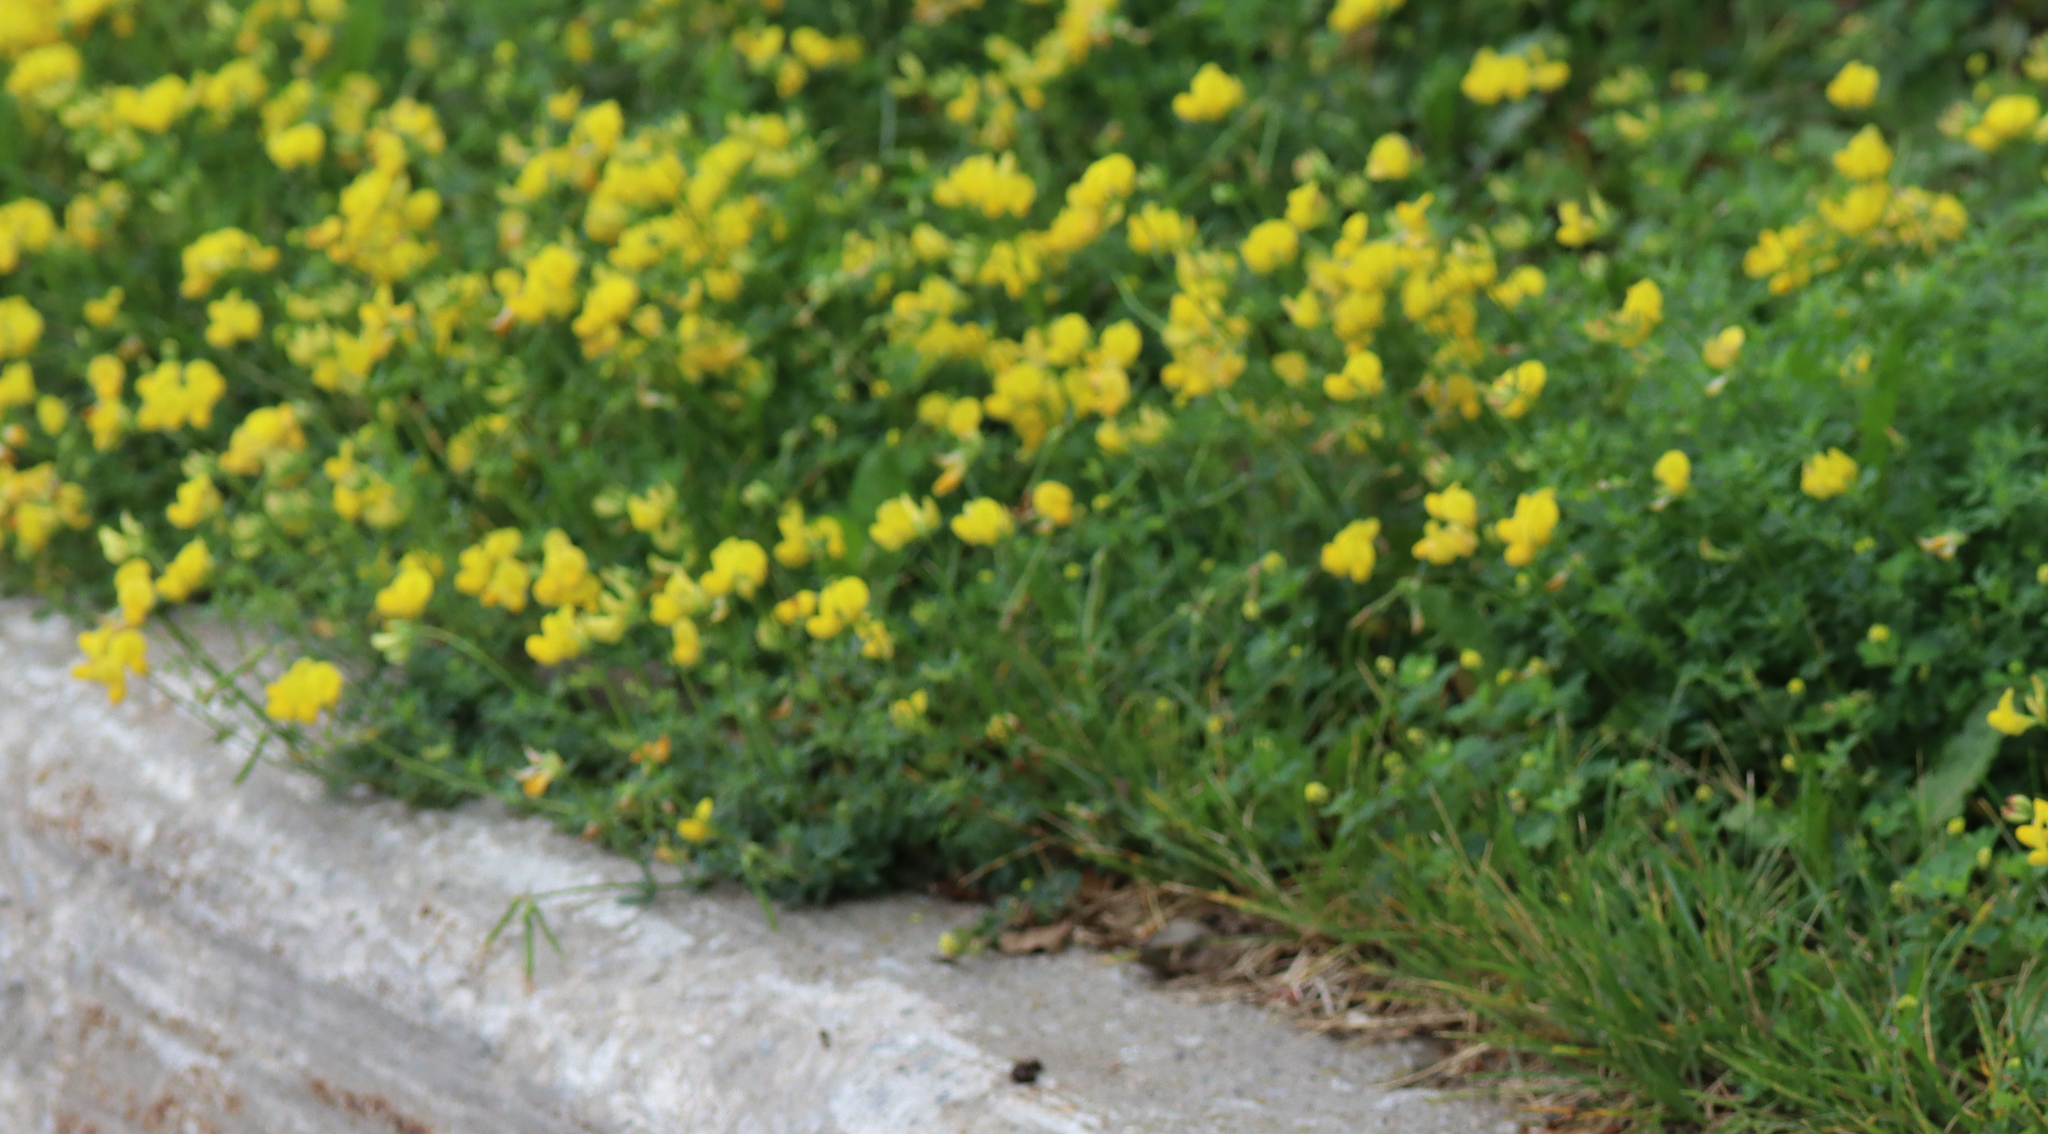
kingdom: Plantae
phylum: Tracheophyta
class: Magnoliopsida
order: Fabales
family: Fabaceae
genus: Lotus
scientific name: Lotus corniculatus
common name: Common bird's-foot-trefoil
